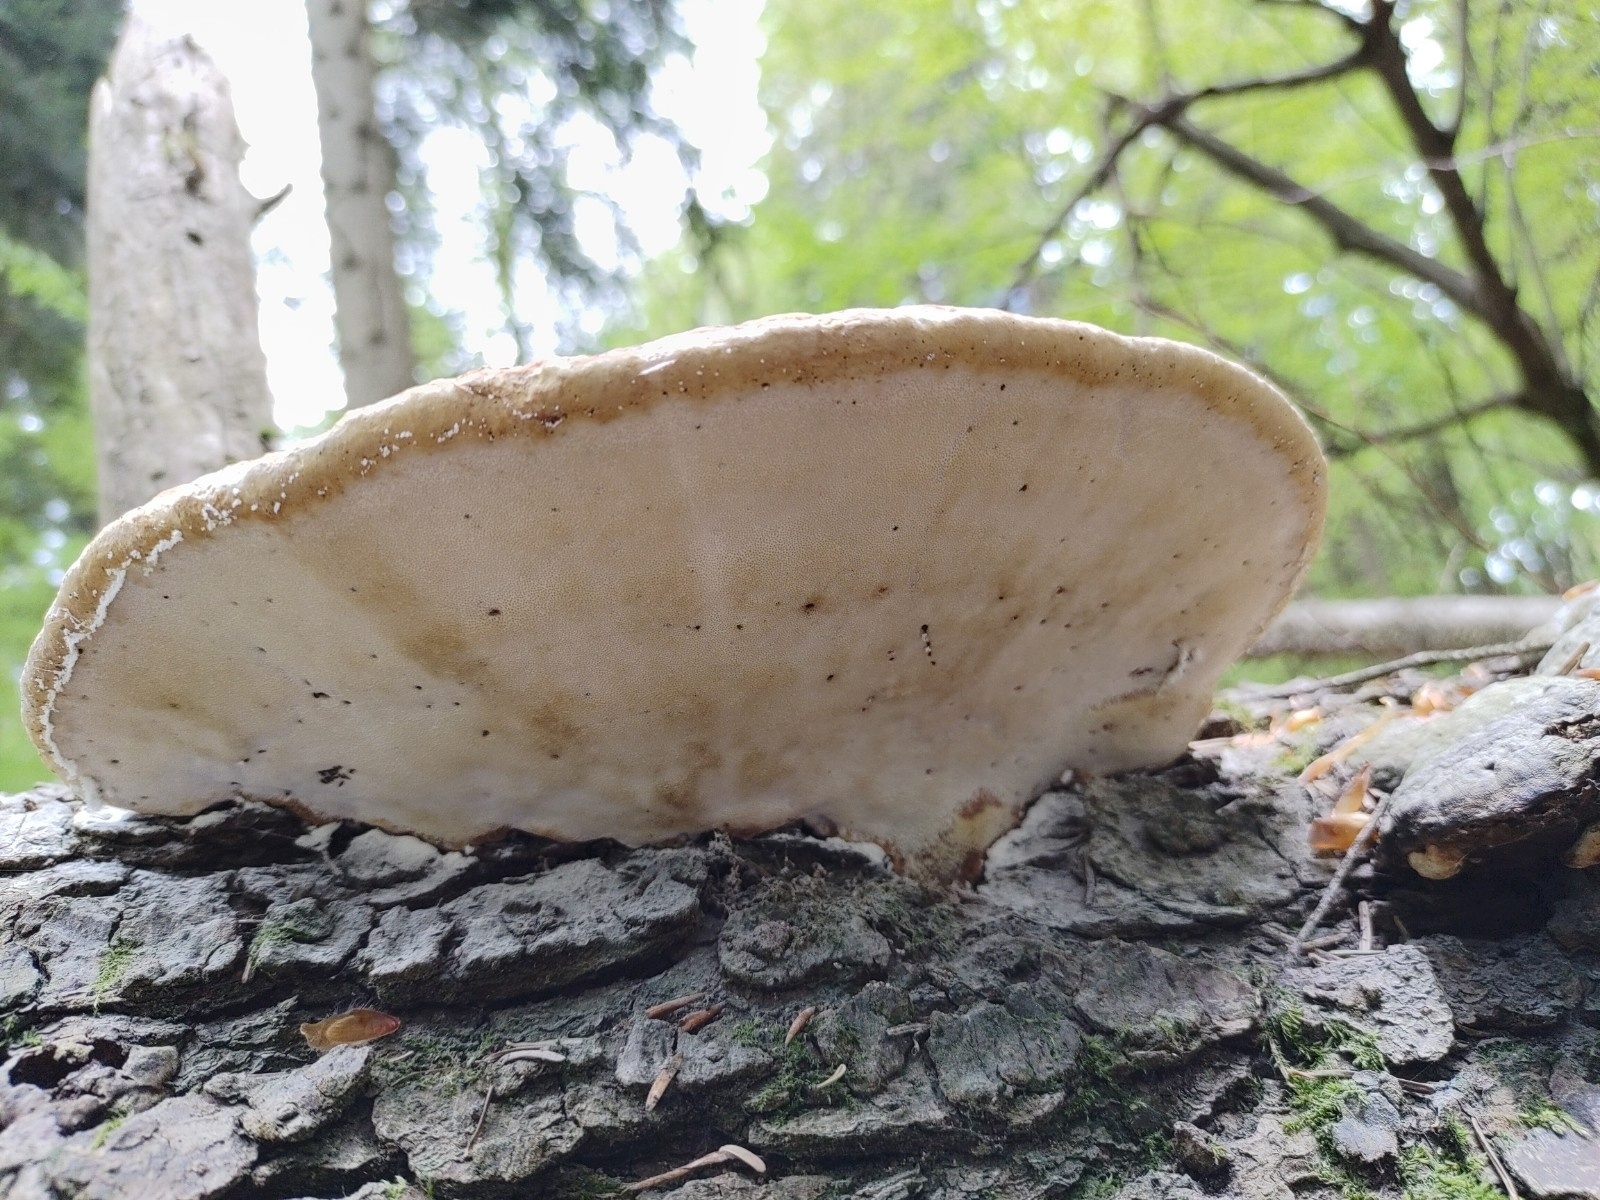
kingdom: Fungi
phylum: Basidiomycota
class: Agaricomycetes
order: Polyporales
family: Fomitopsidaceae
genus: Fomitopsis
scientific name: Fomitopsis pinicola
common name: Red-belted bracket
